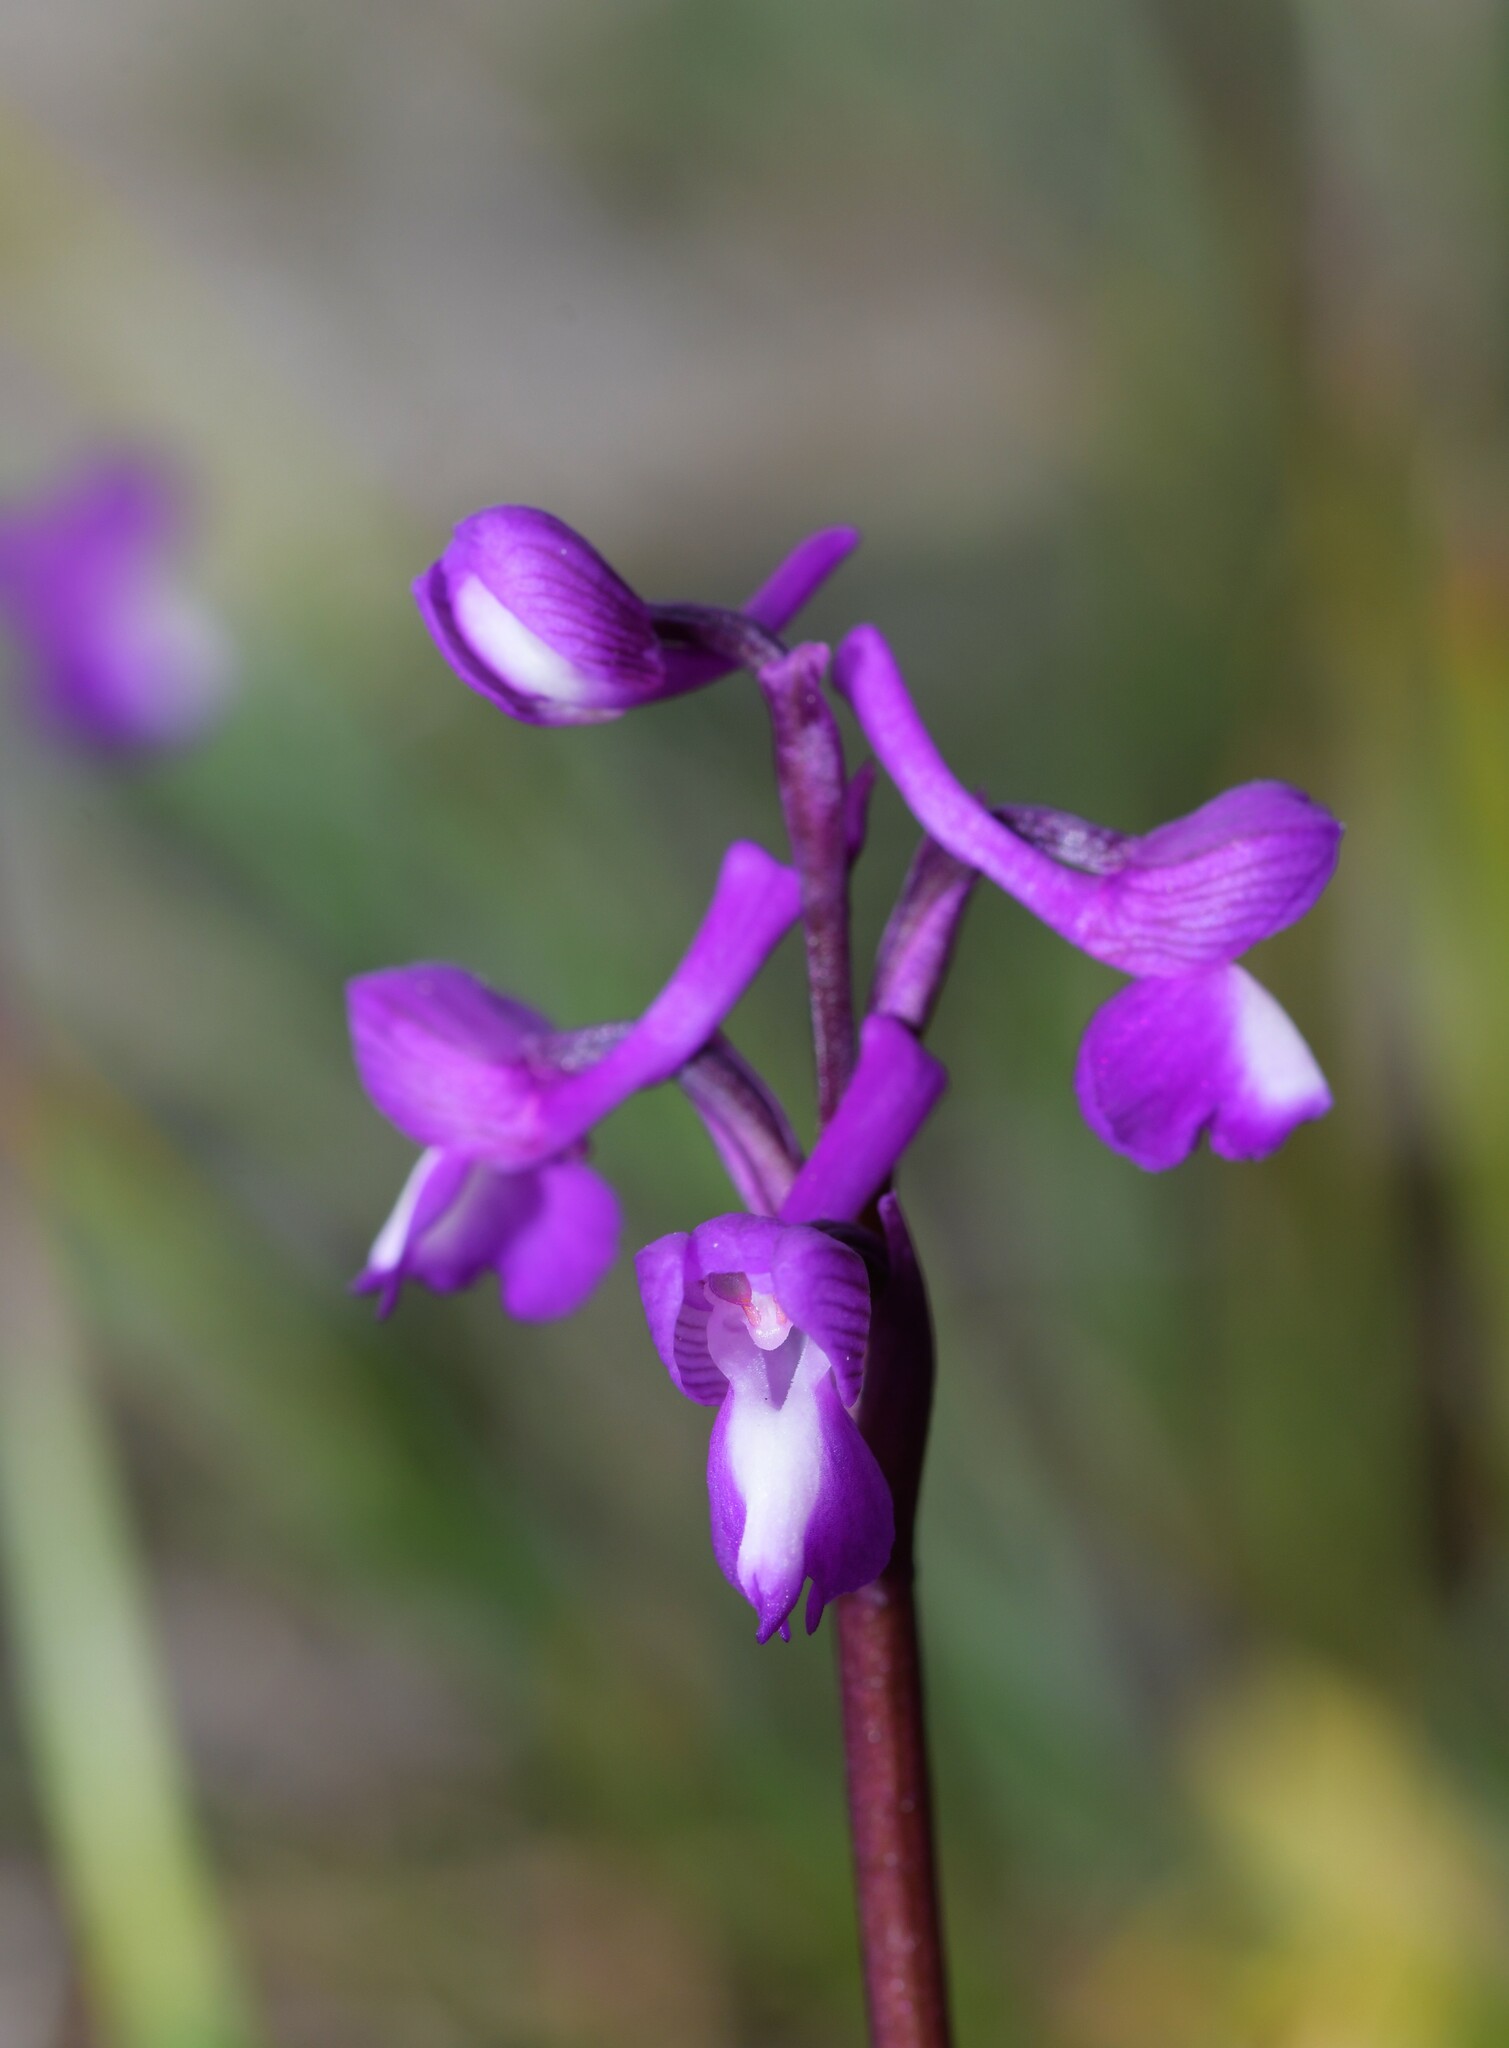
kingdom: Plantae
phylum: Tracheophyta
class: Liliopsida
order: Asparagales
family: Orchidaceae
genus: Anacamptis
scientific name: Anacamptis morio
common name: Green-winged orchid
